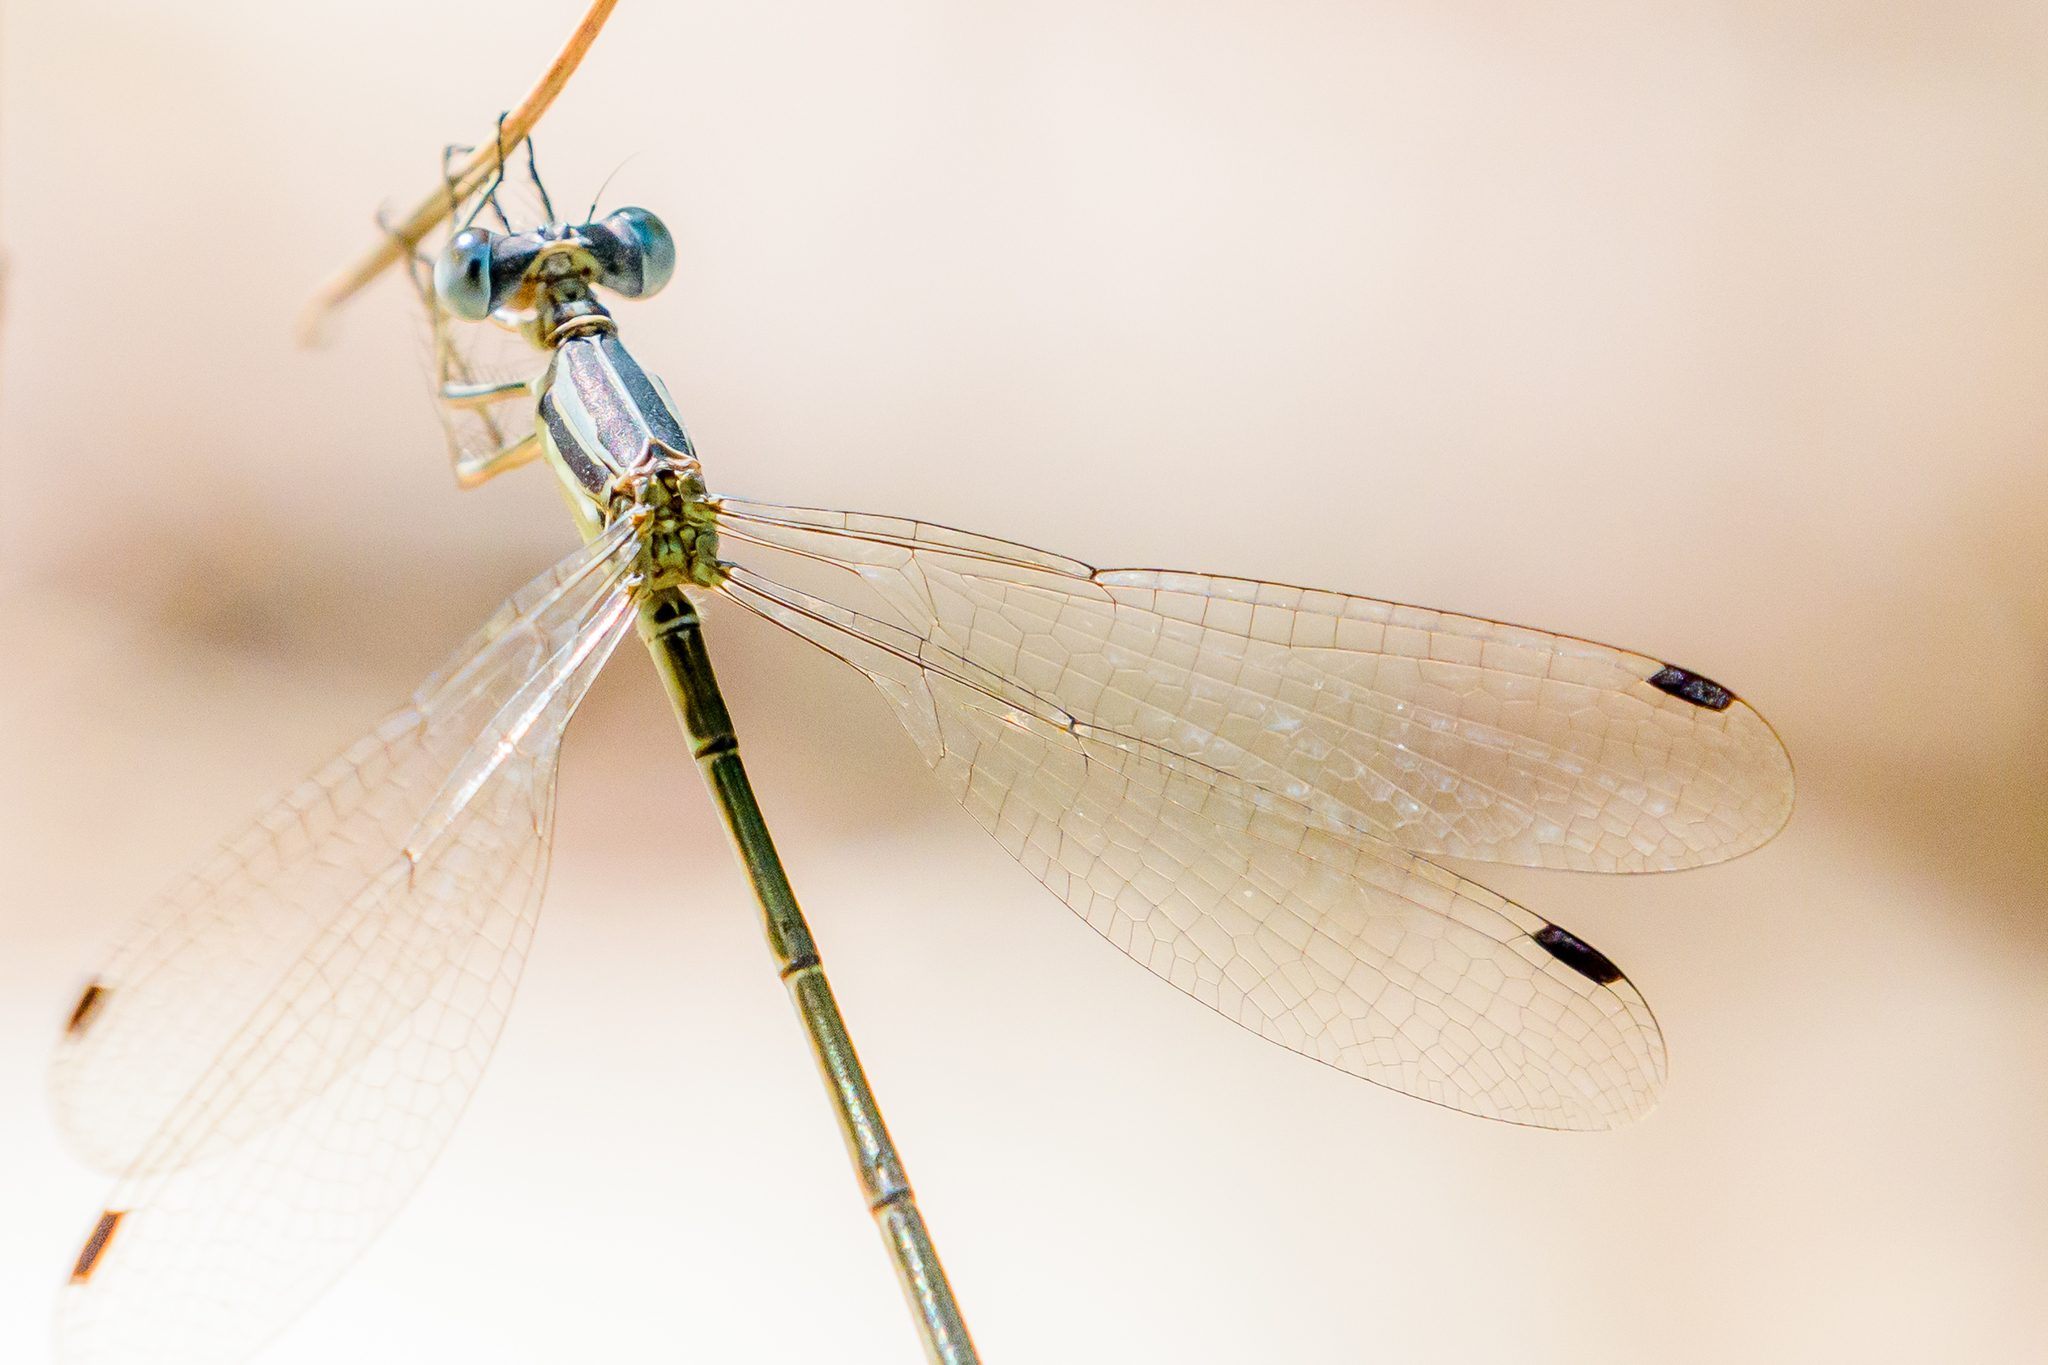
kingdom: Animalia
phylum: Arthropoda
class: Insecta
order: Odonata
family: Lestidae
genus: Lestes
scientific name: Lestes rectangularis
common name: Slender spreadwing
